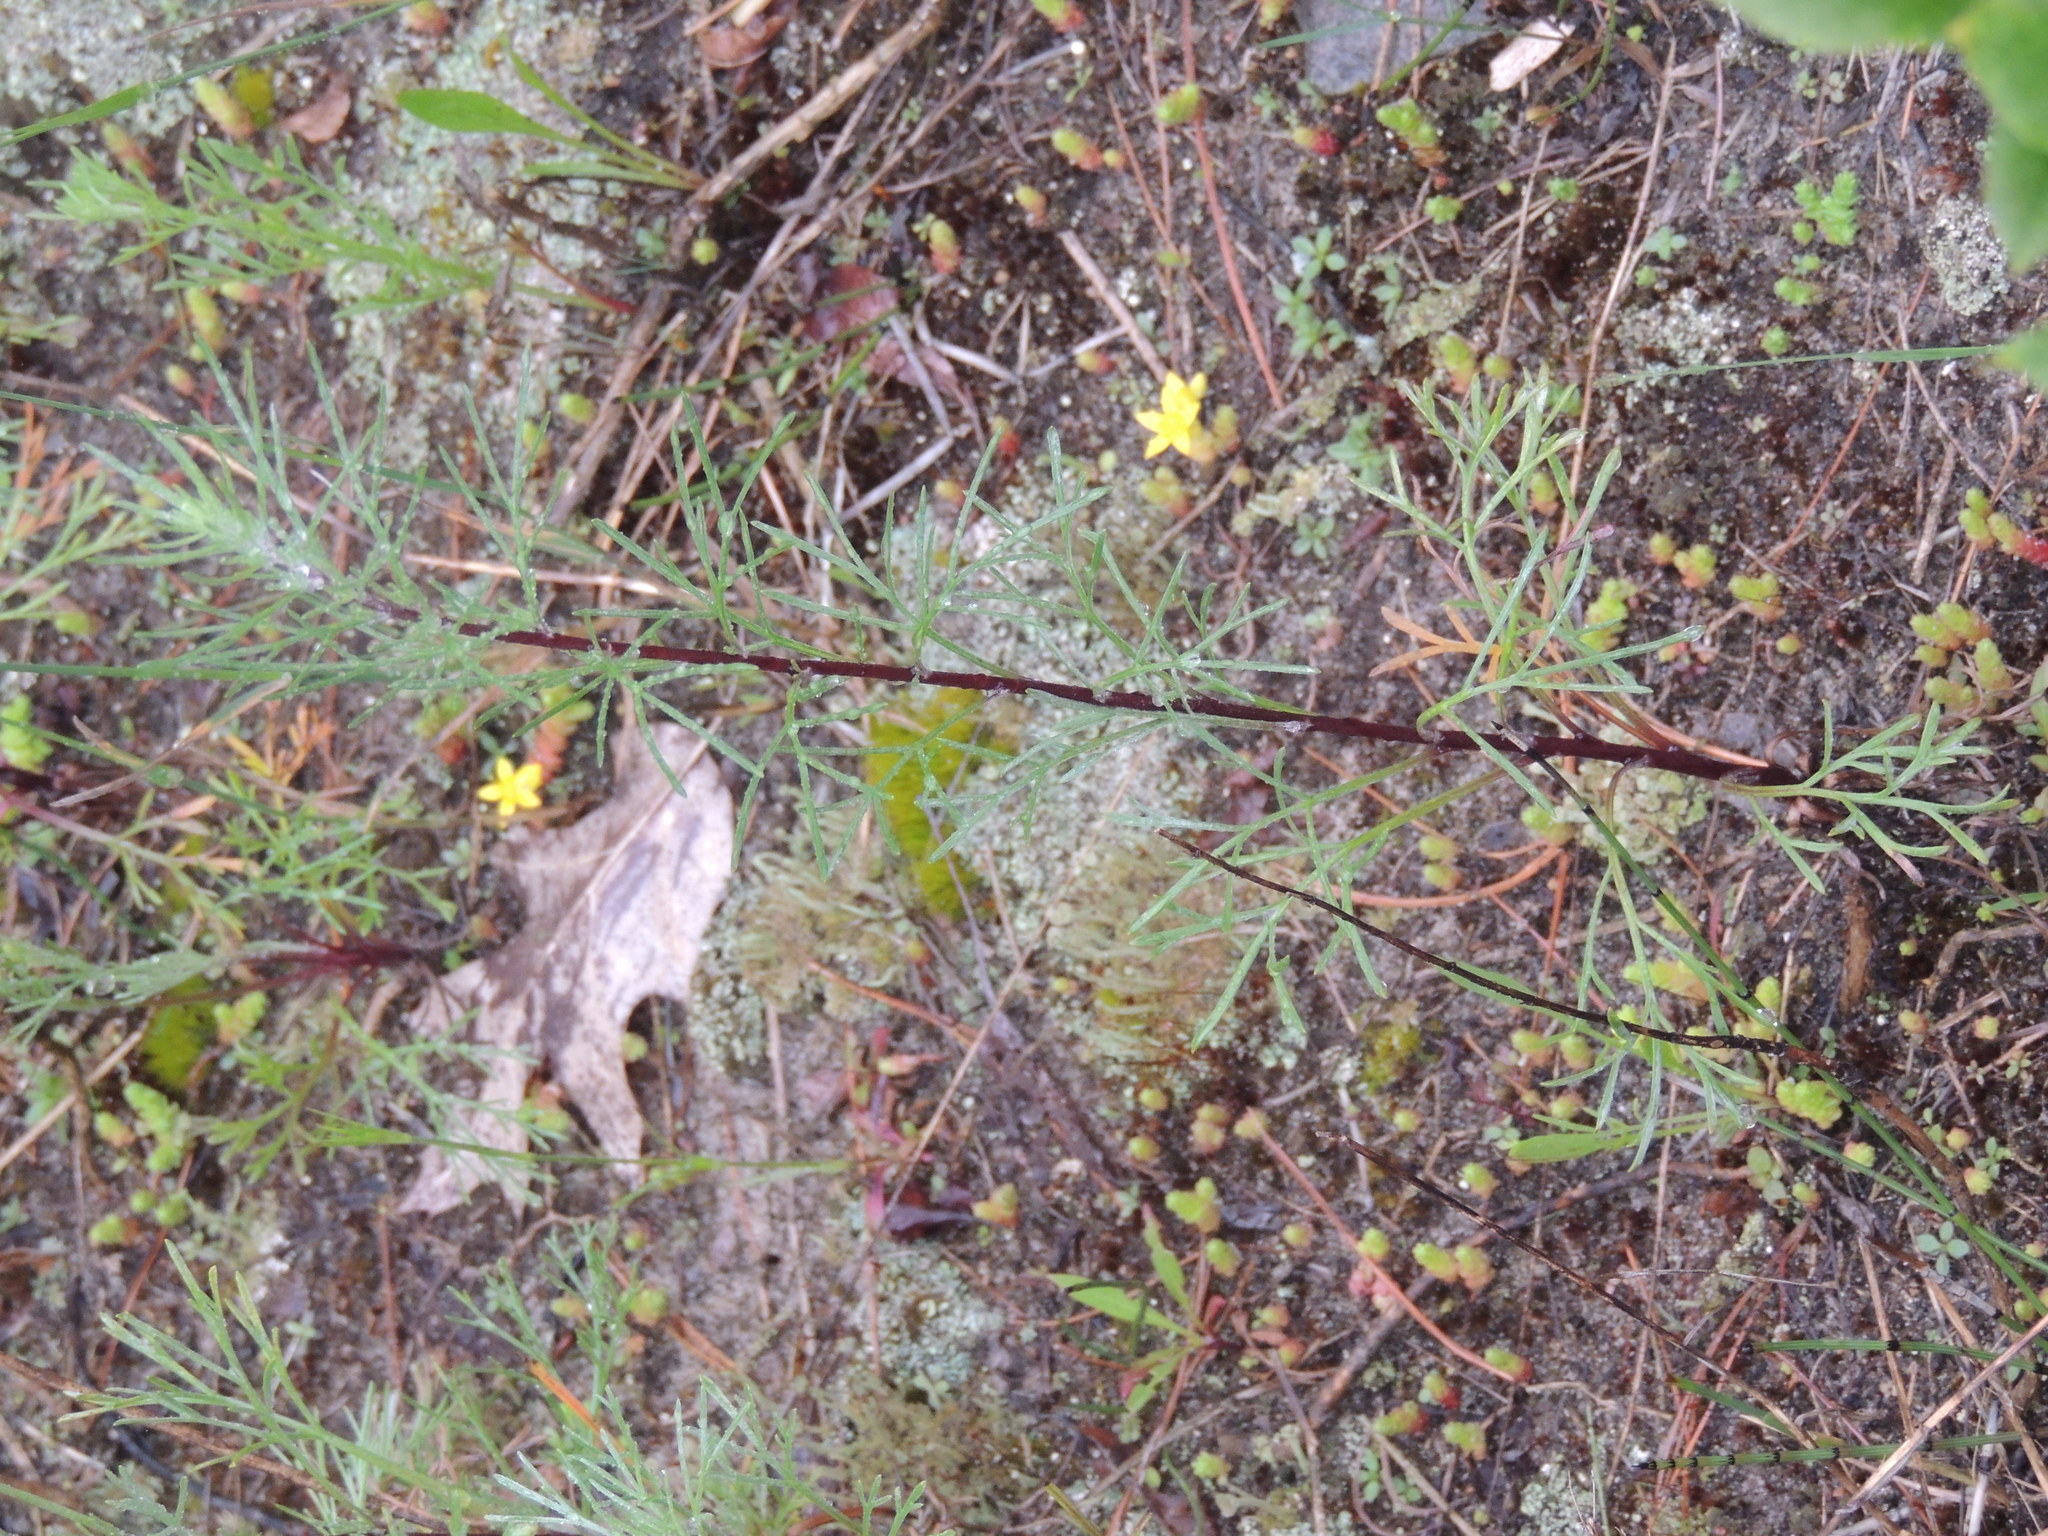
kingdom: Plantae
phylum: Tracheophyta
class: Magnoliopsida
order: Asterales
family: Asteraceae
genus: Artemisia
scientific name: Artemisia campestris
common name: Field wormwood
